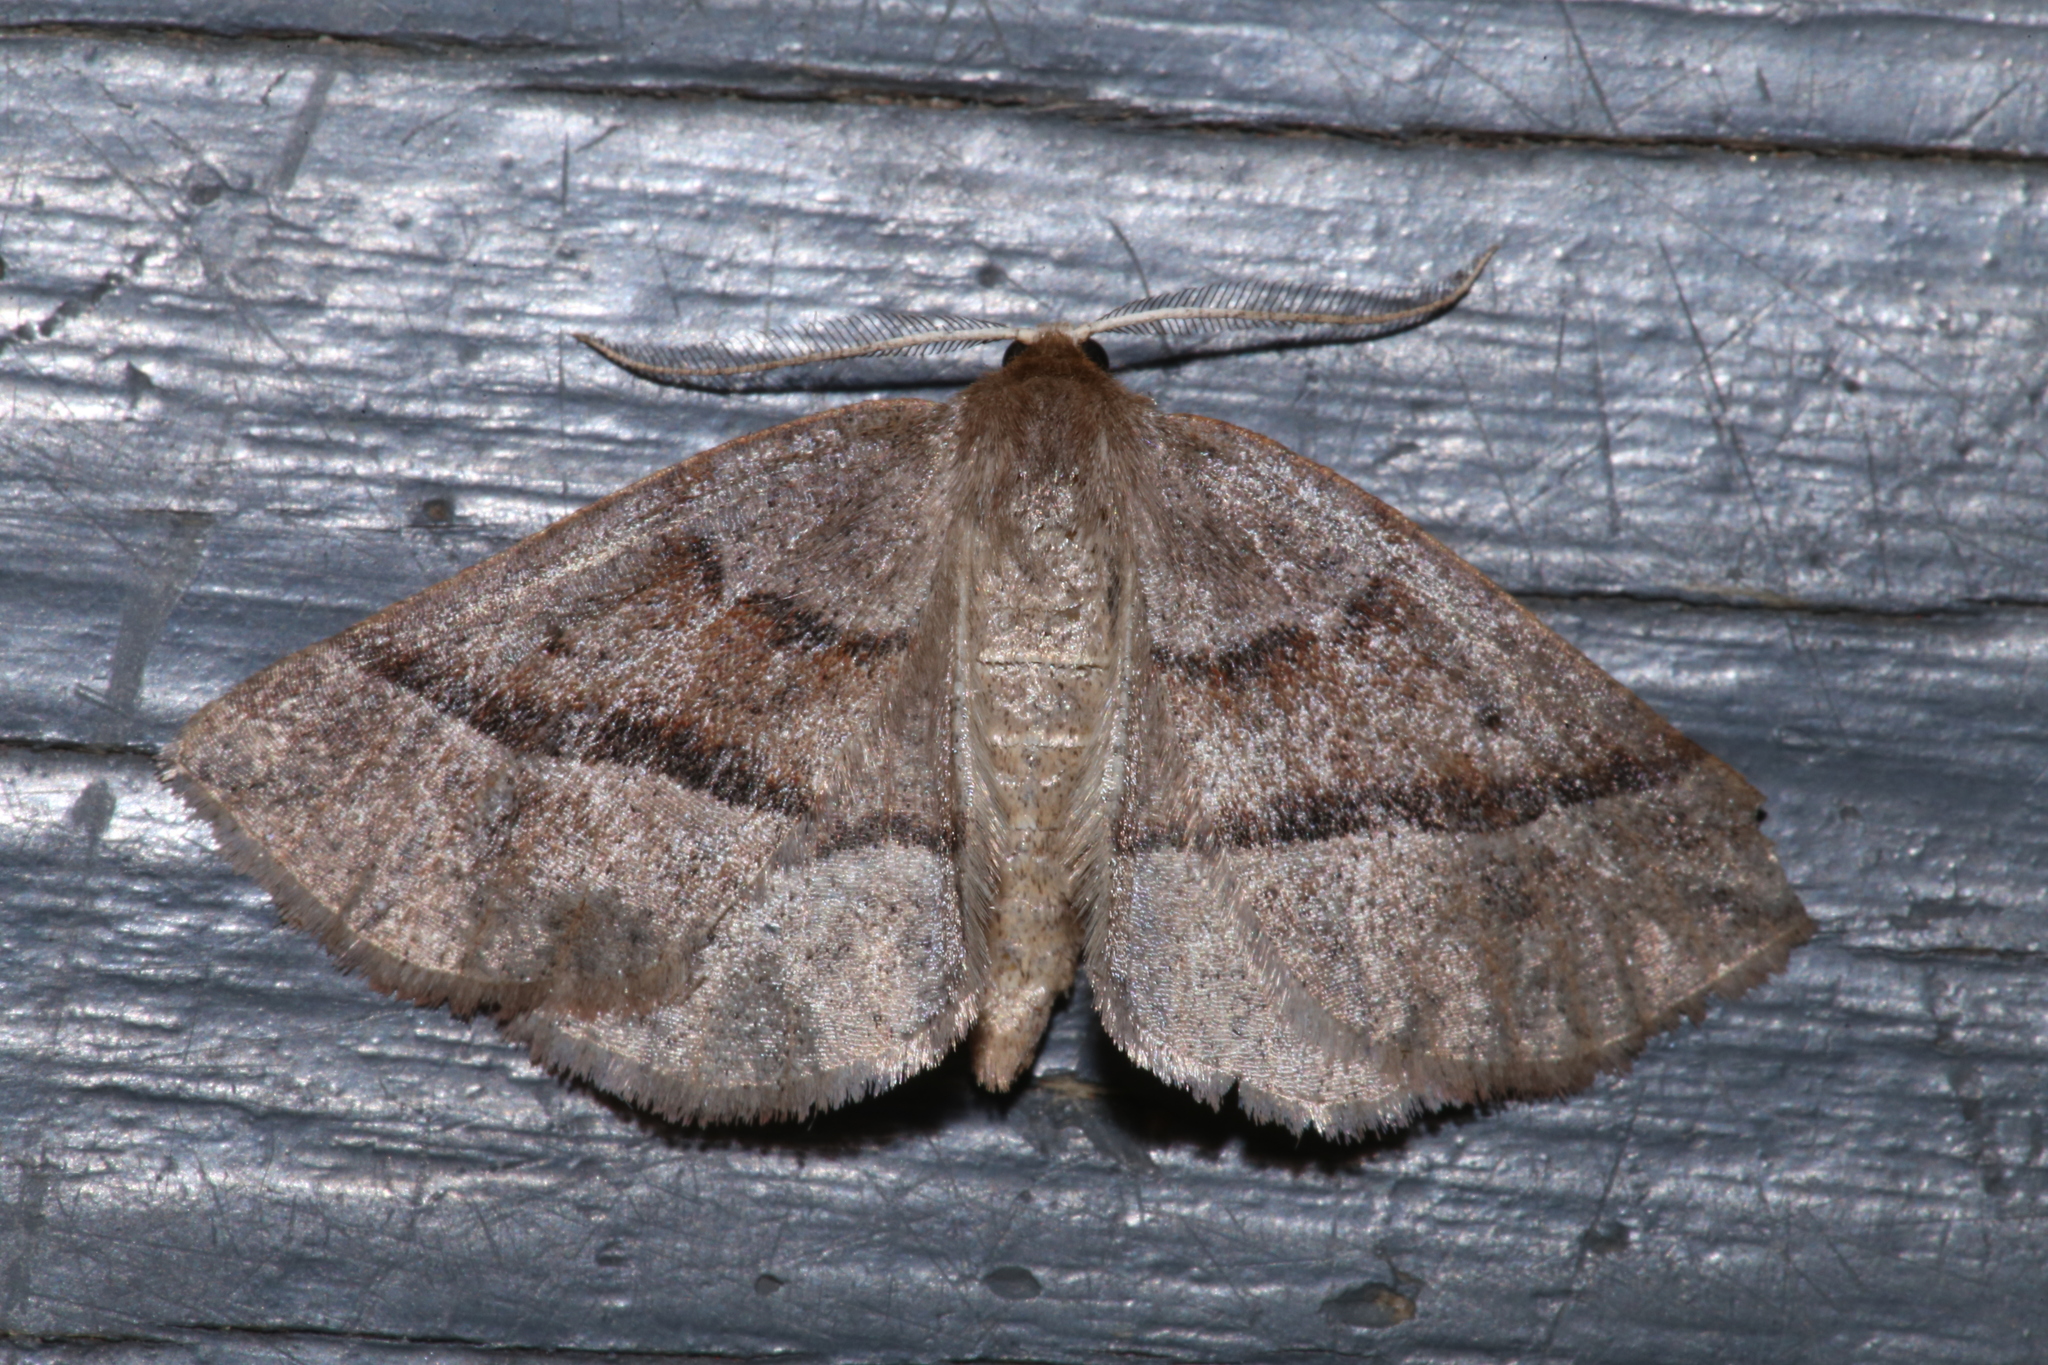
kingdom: Animalia
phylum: Arthropoda
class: Insecta
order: Lepidoptera
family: Geometridae
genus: Metarranthis
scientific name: Metarranthis warneri
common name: Warner's metarranthis moth
